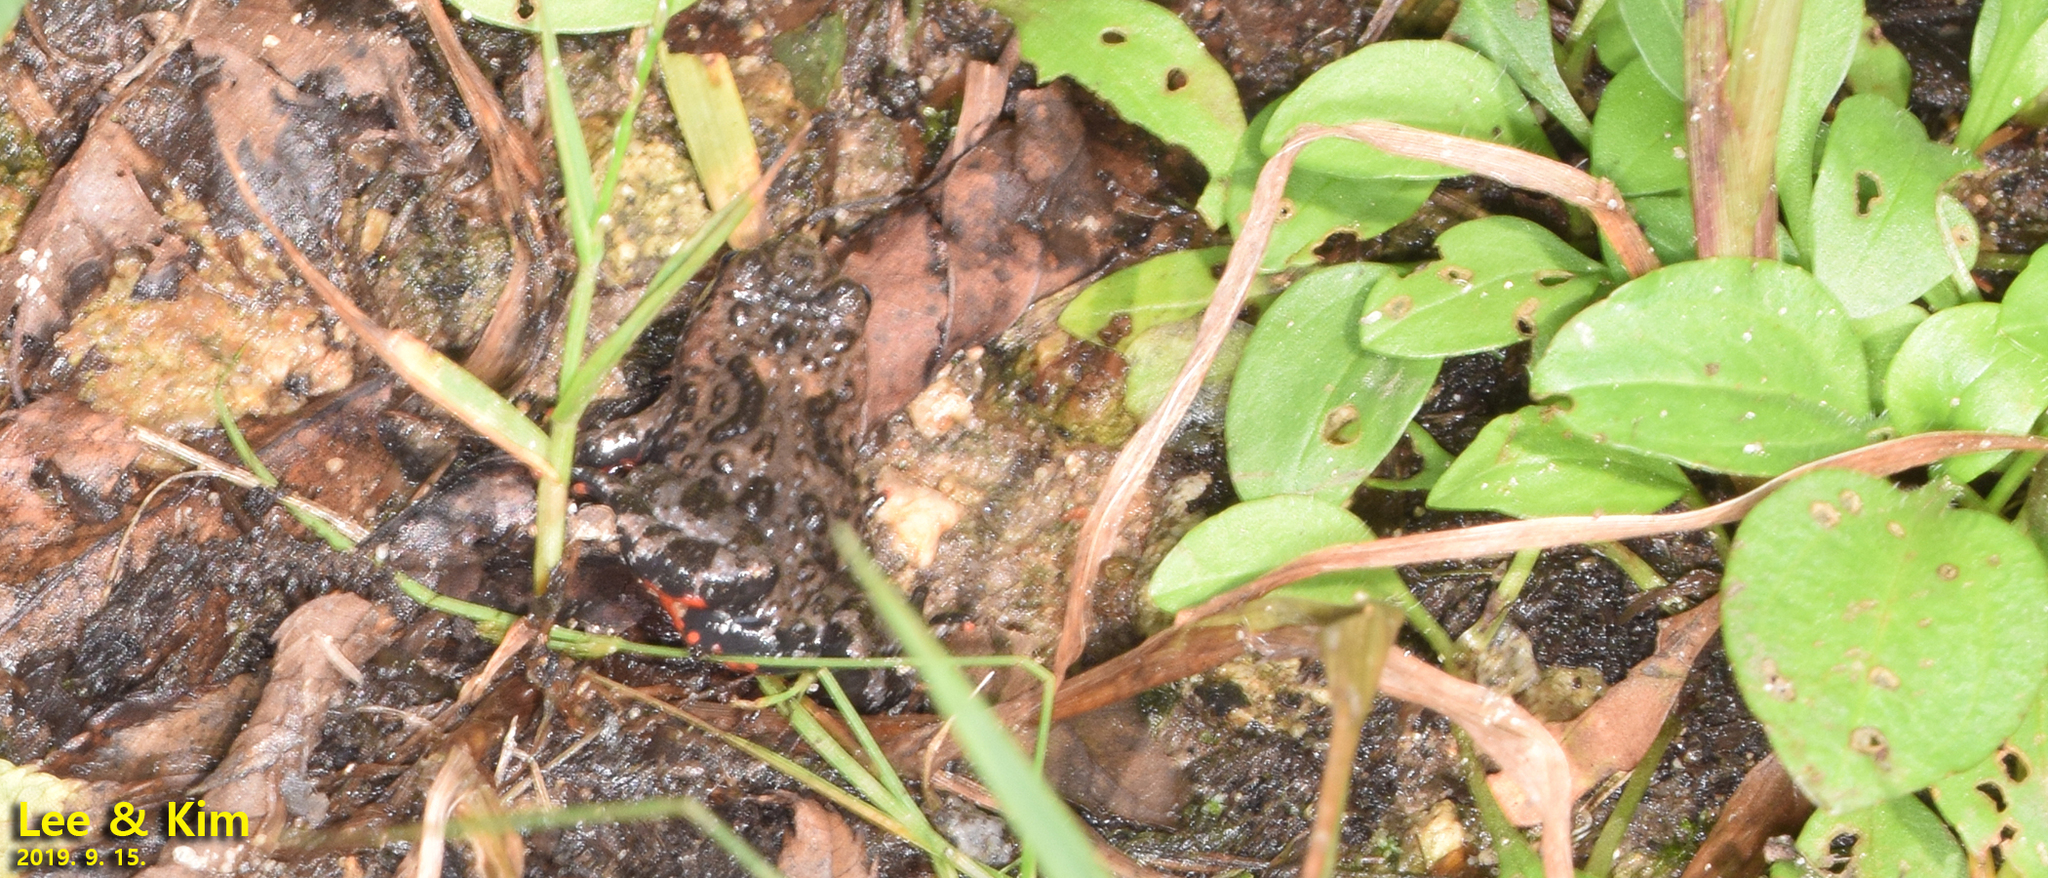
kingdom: Animalia
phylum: Chordata
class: Amphibia
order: Anura
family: Bombinatoridae
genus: Bombina
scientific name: Bombina orientalis
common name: Oriental firebelly toad
